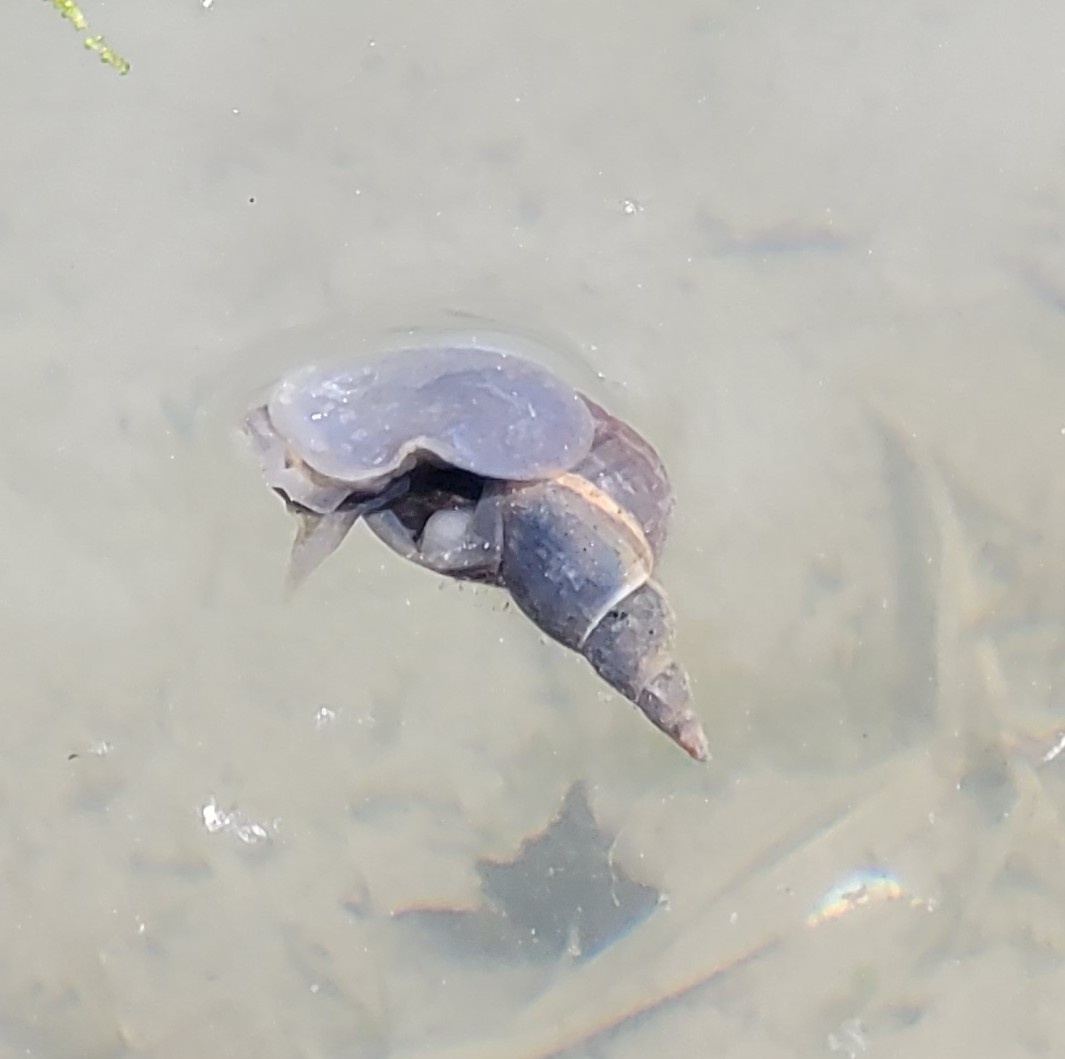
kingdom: Animalia
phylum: Mollusca
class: Gastropoda
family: Lymnaeidae
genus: Lymnaea
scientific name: Lymnaea stagnalis
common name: Great pond snail
